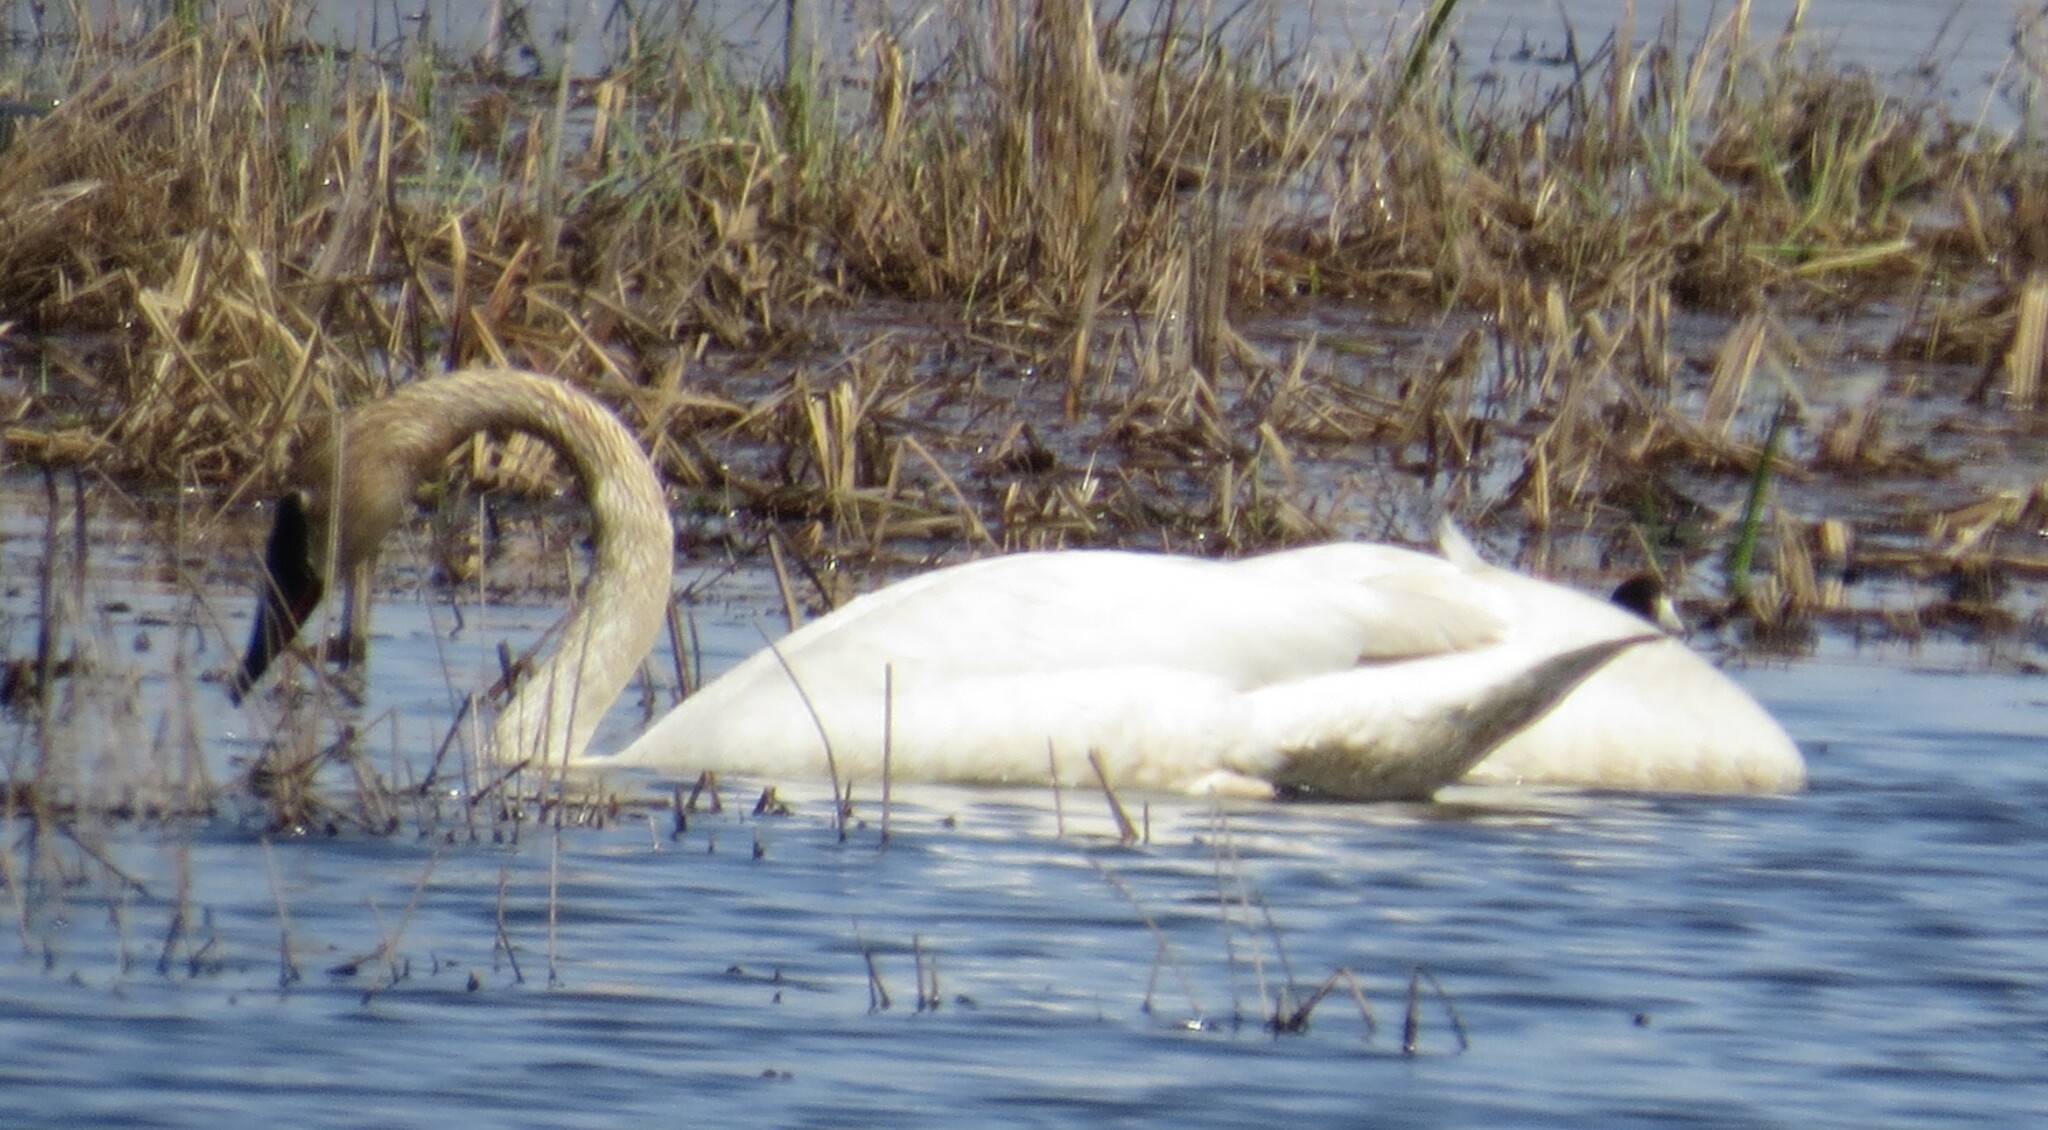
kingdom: Animalia
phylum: Chordata
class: Aves
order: Anseriformes
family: Anatidae
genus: Cygnus
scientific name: Cygnus buccinator
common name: Trumpeter swan
